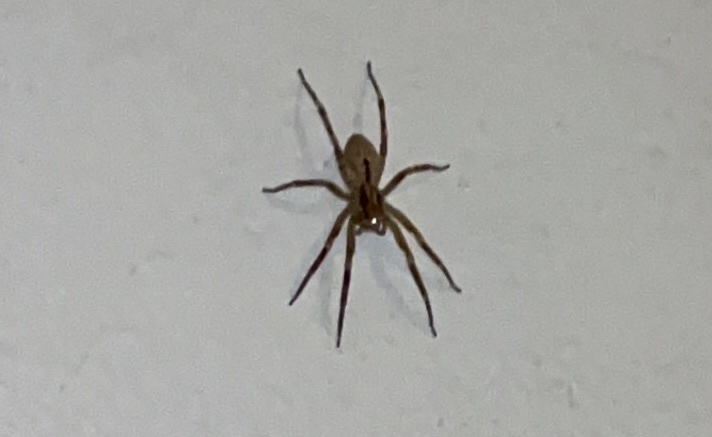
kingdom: Animalia
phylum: Arthropoda
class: Arachnida
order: Araneae
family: Zoropsidae
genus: Zoropsis
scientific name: Zoropsis spinimana
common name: Zoropsid spider
